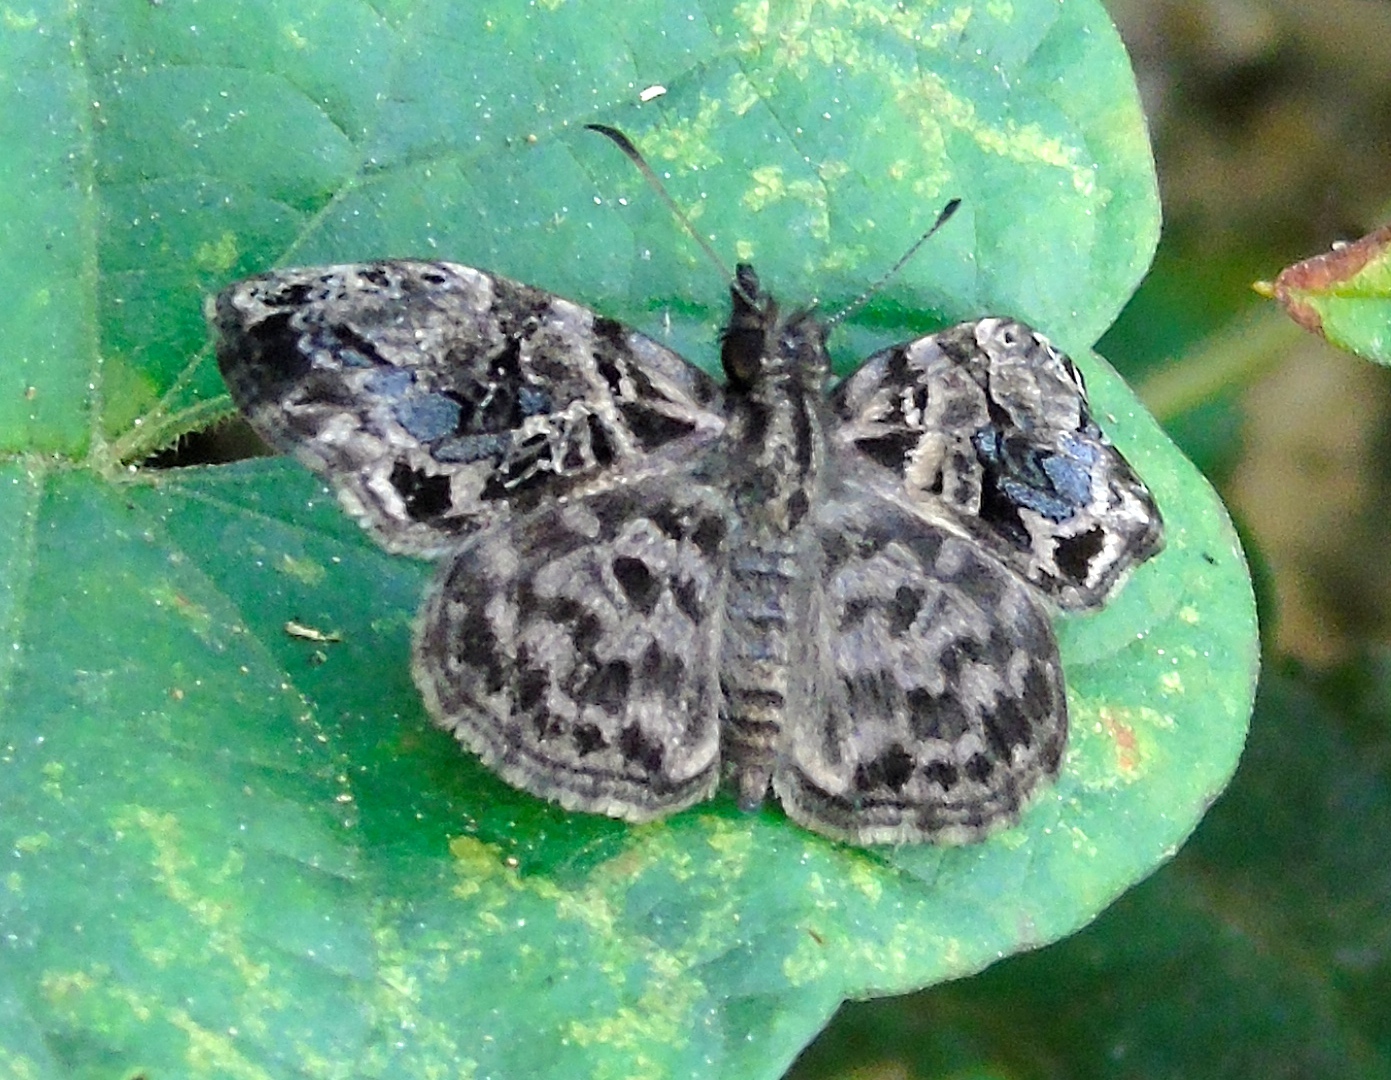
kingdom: Animalia
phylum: Arthropoda
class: Insecta
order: Lepidoptera
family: Hesperiidae
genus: Gorgythion
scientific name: Gorgythion
